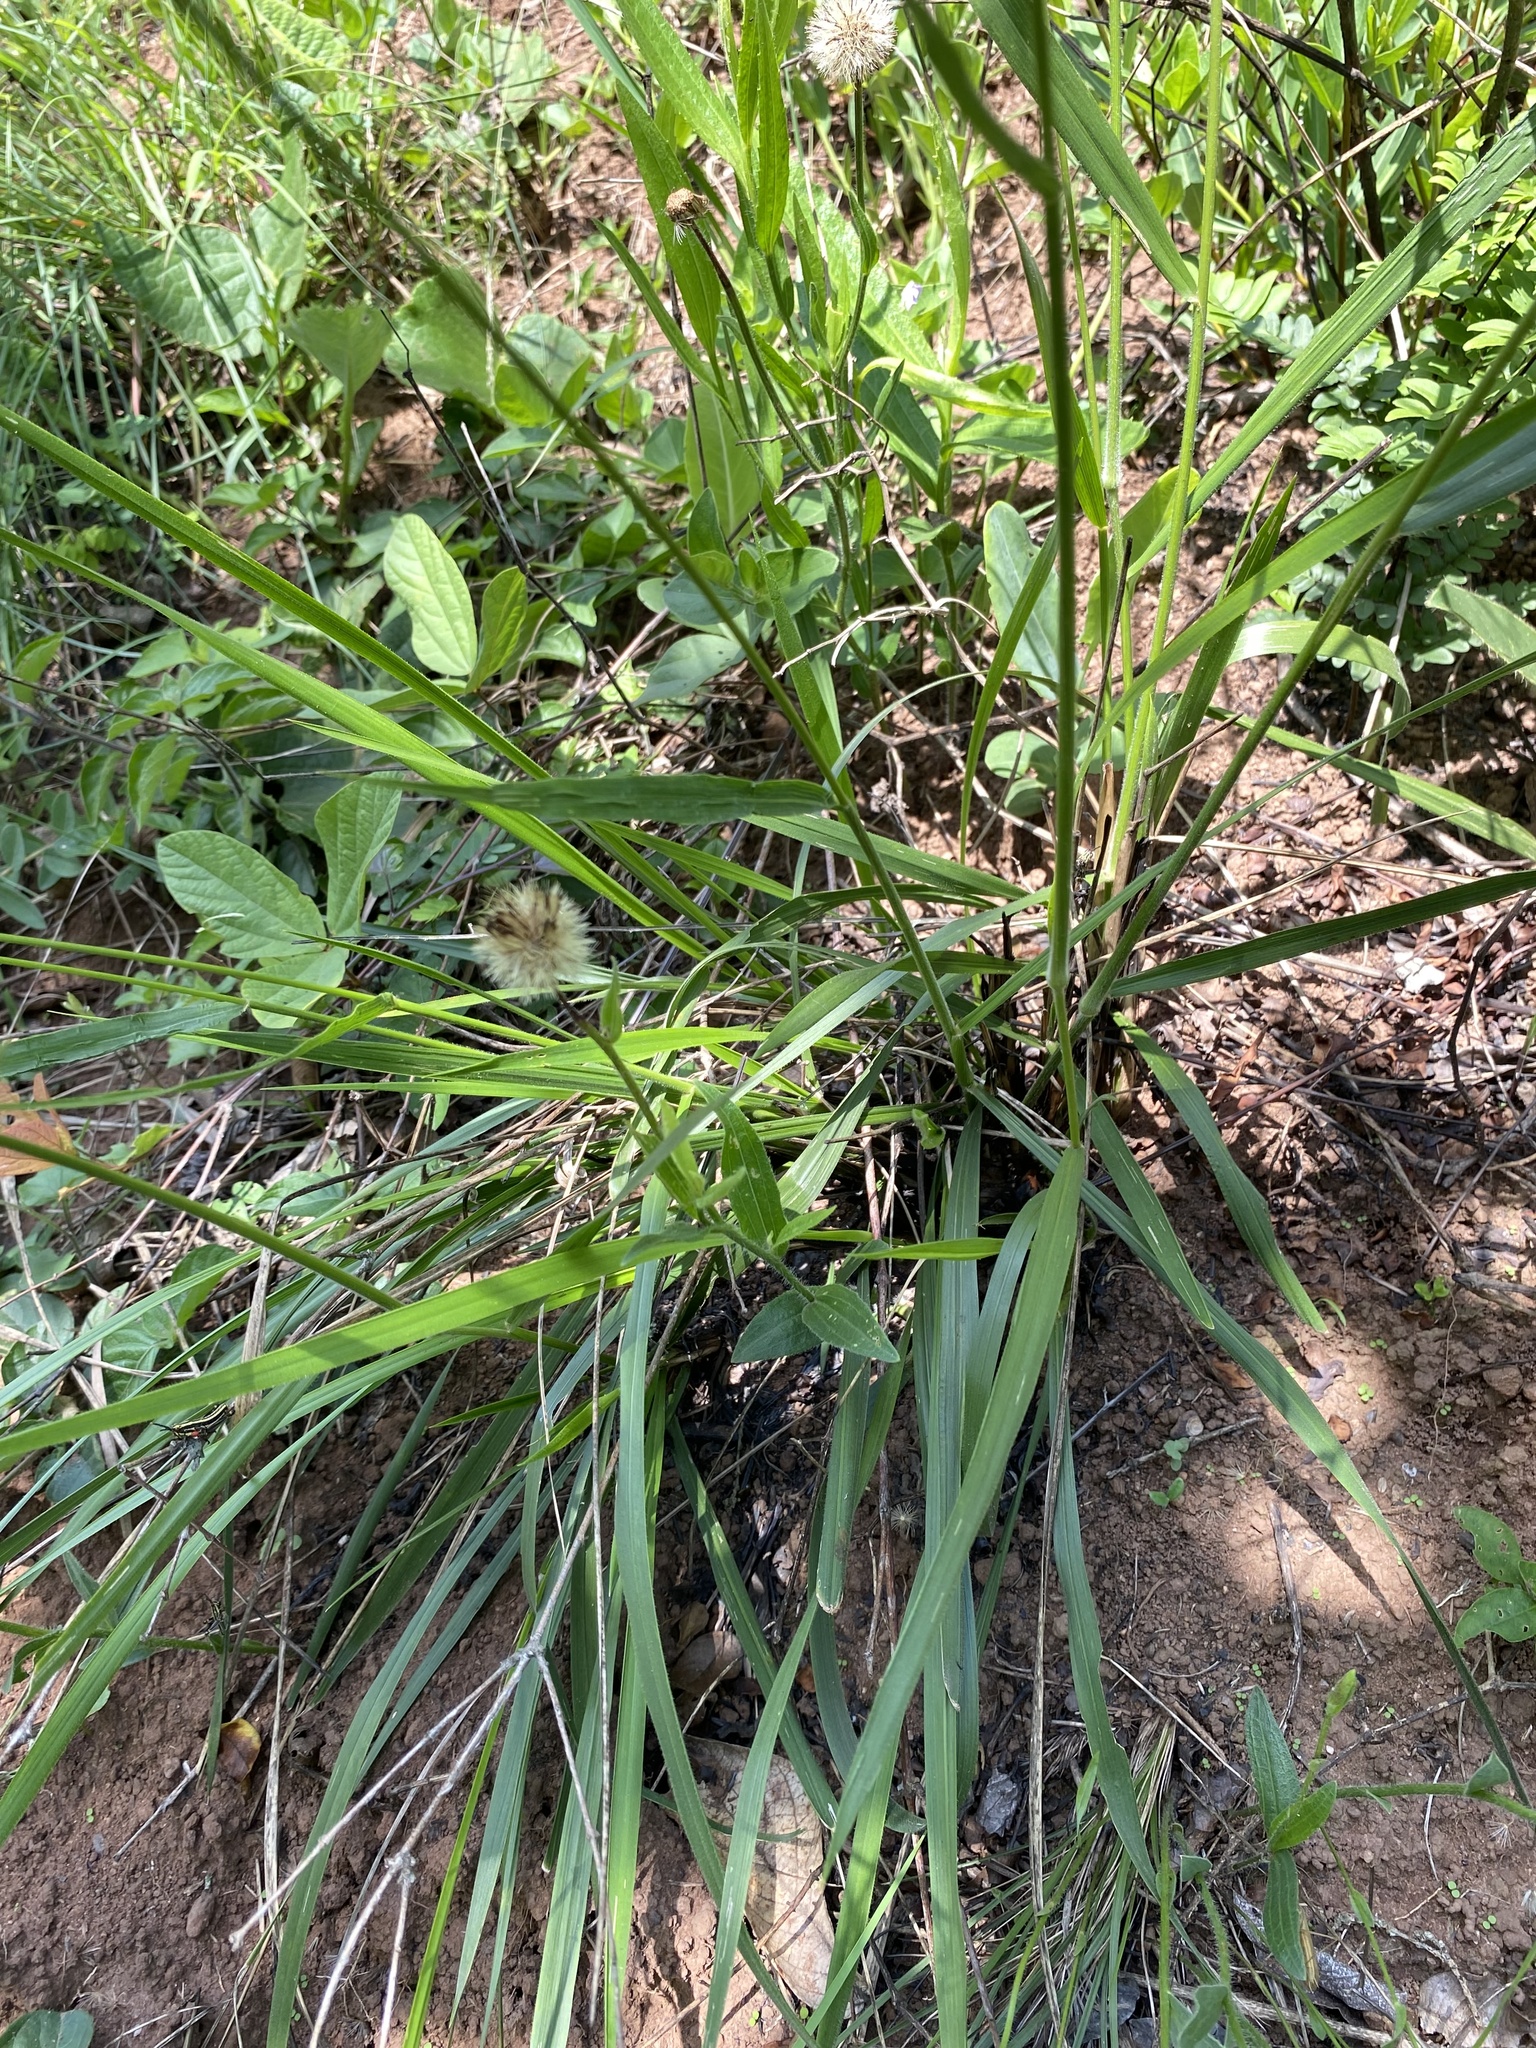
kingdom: Plantae
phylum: Tracheophyta
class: Liliopsida
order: Poales
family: Poaceae
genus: Alloteropsis
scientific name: Alloteropsis semialata
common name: Cockatoo grass
